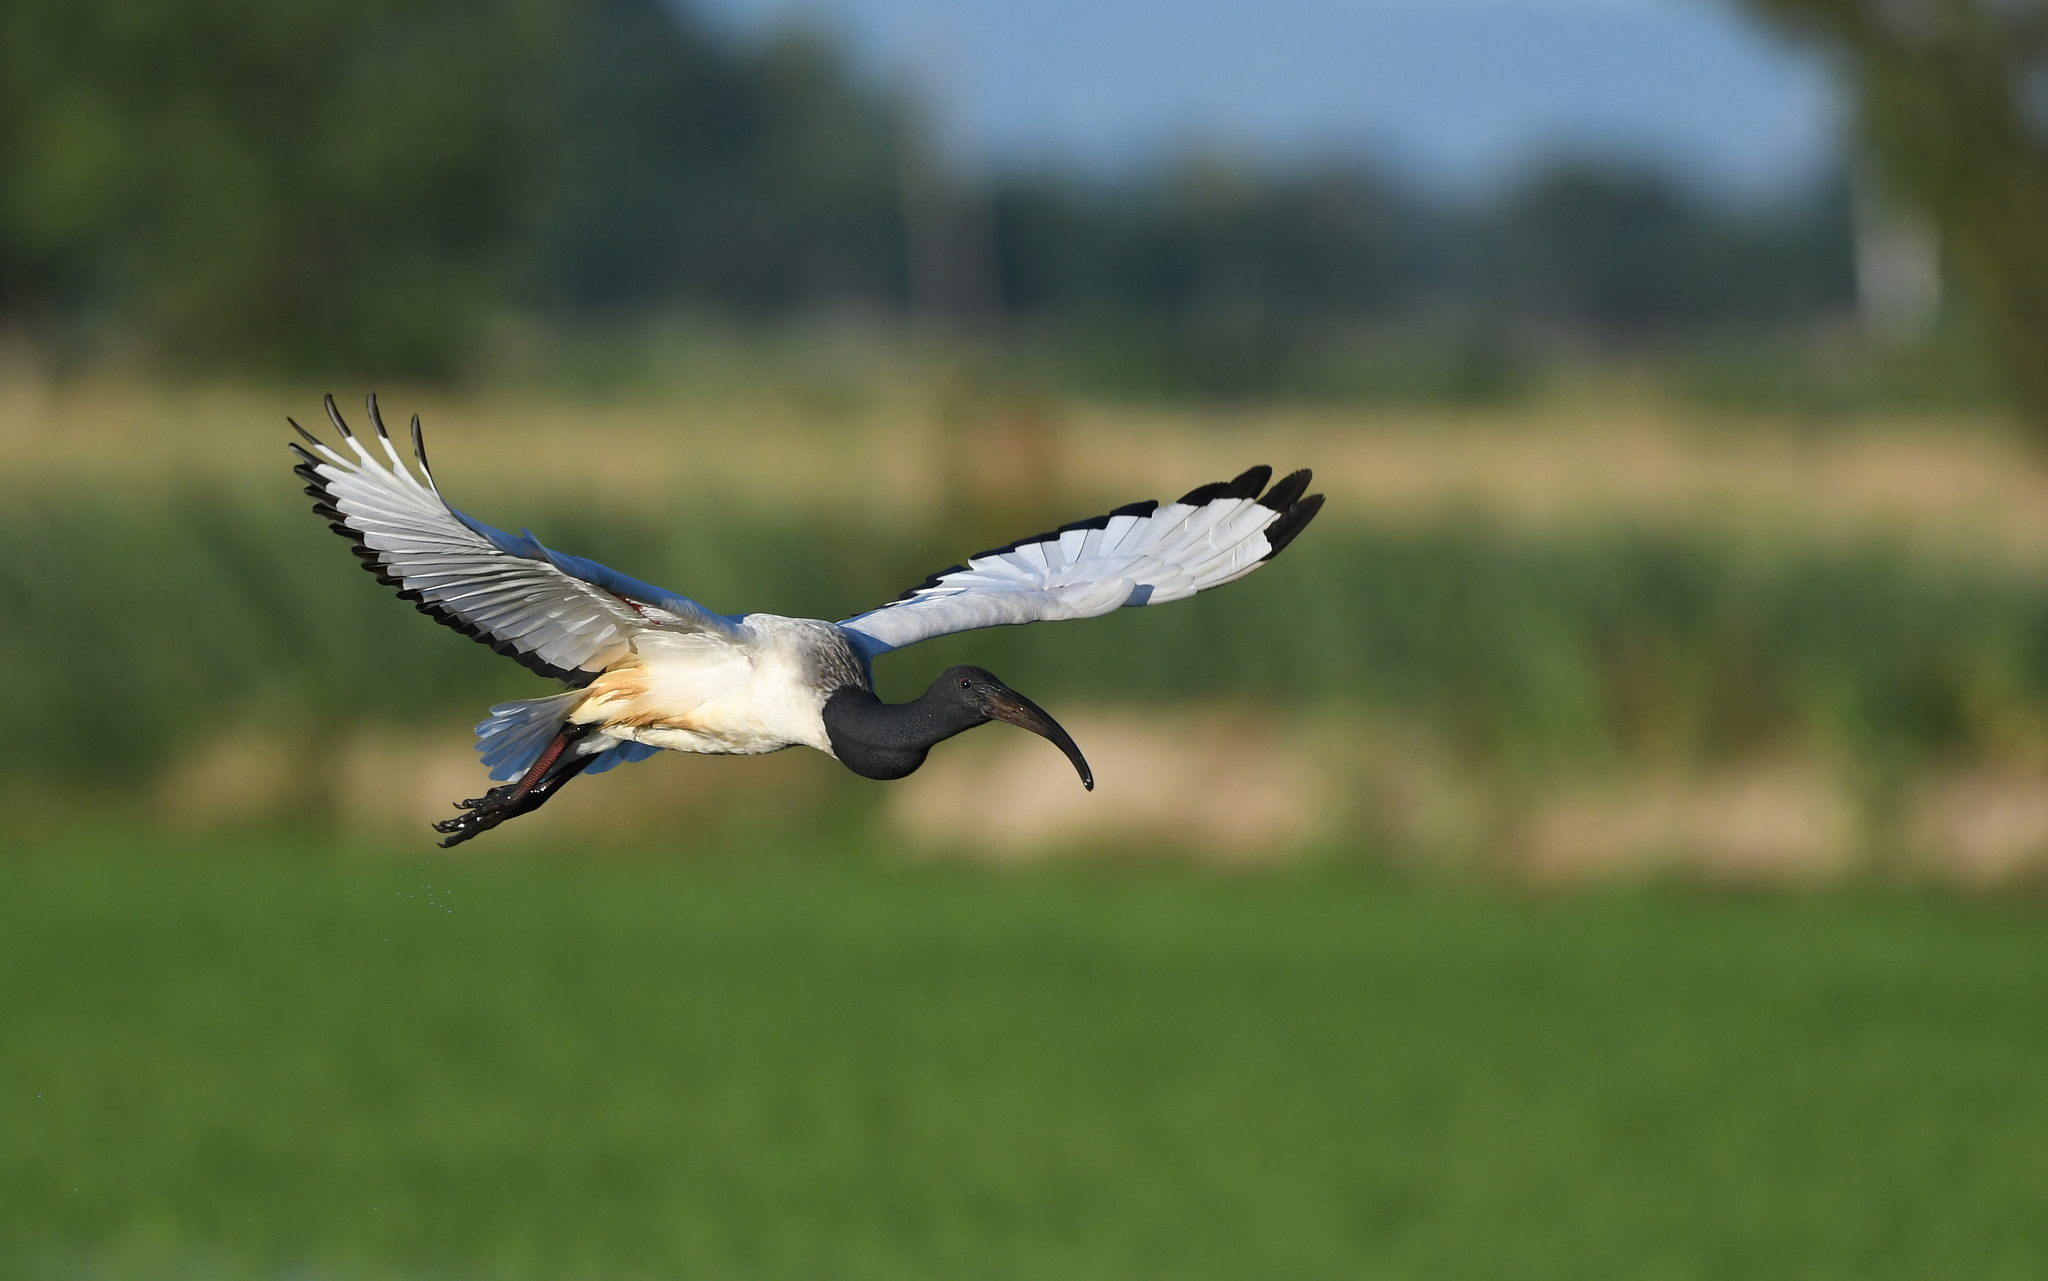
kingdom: Animalia
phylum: Chordata
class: Aves
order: Pelecaniformes
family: Threskiornithidae
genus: Threskiornis
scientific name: Threskiornis aethiopicus
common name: Sacred ibis
